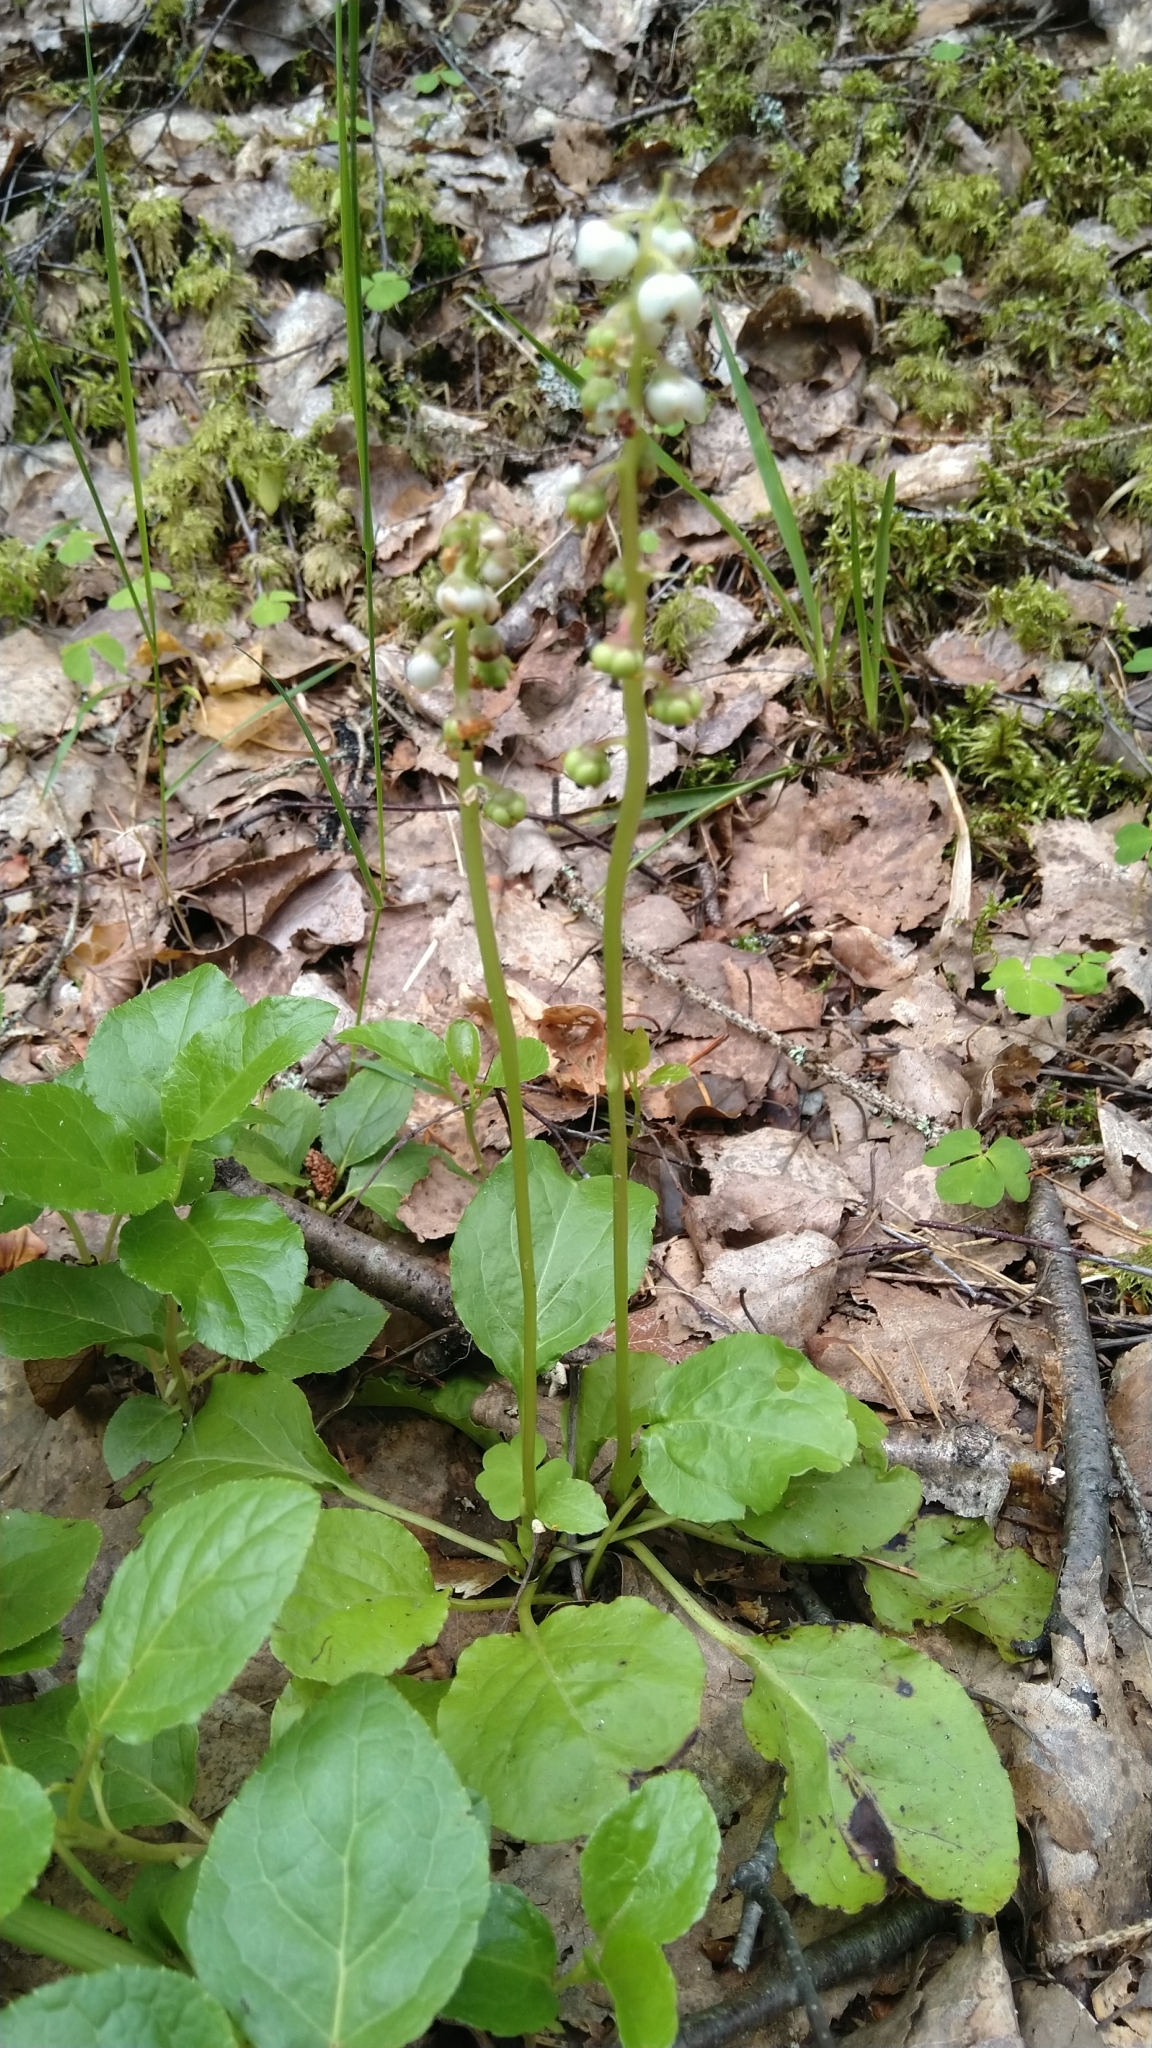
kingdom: Plantae
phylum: Tracheophyta
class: Magnoliopsida
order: Ericales
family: Ericaceae
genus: Pyrola
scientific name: Pyrola minor
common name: Common wintergreen
